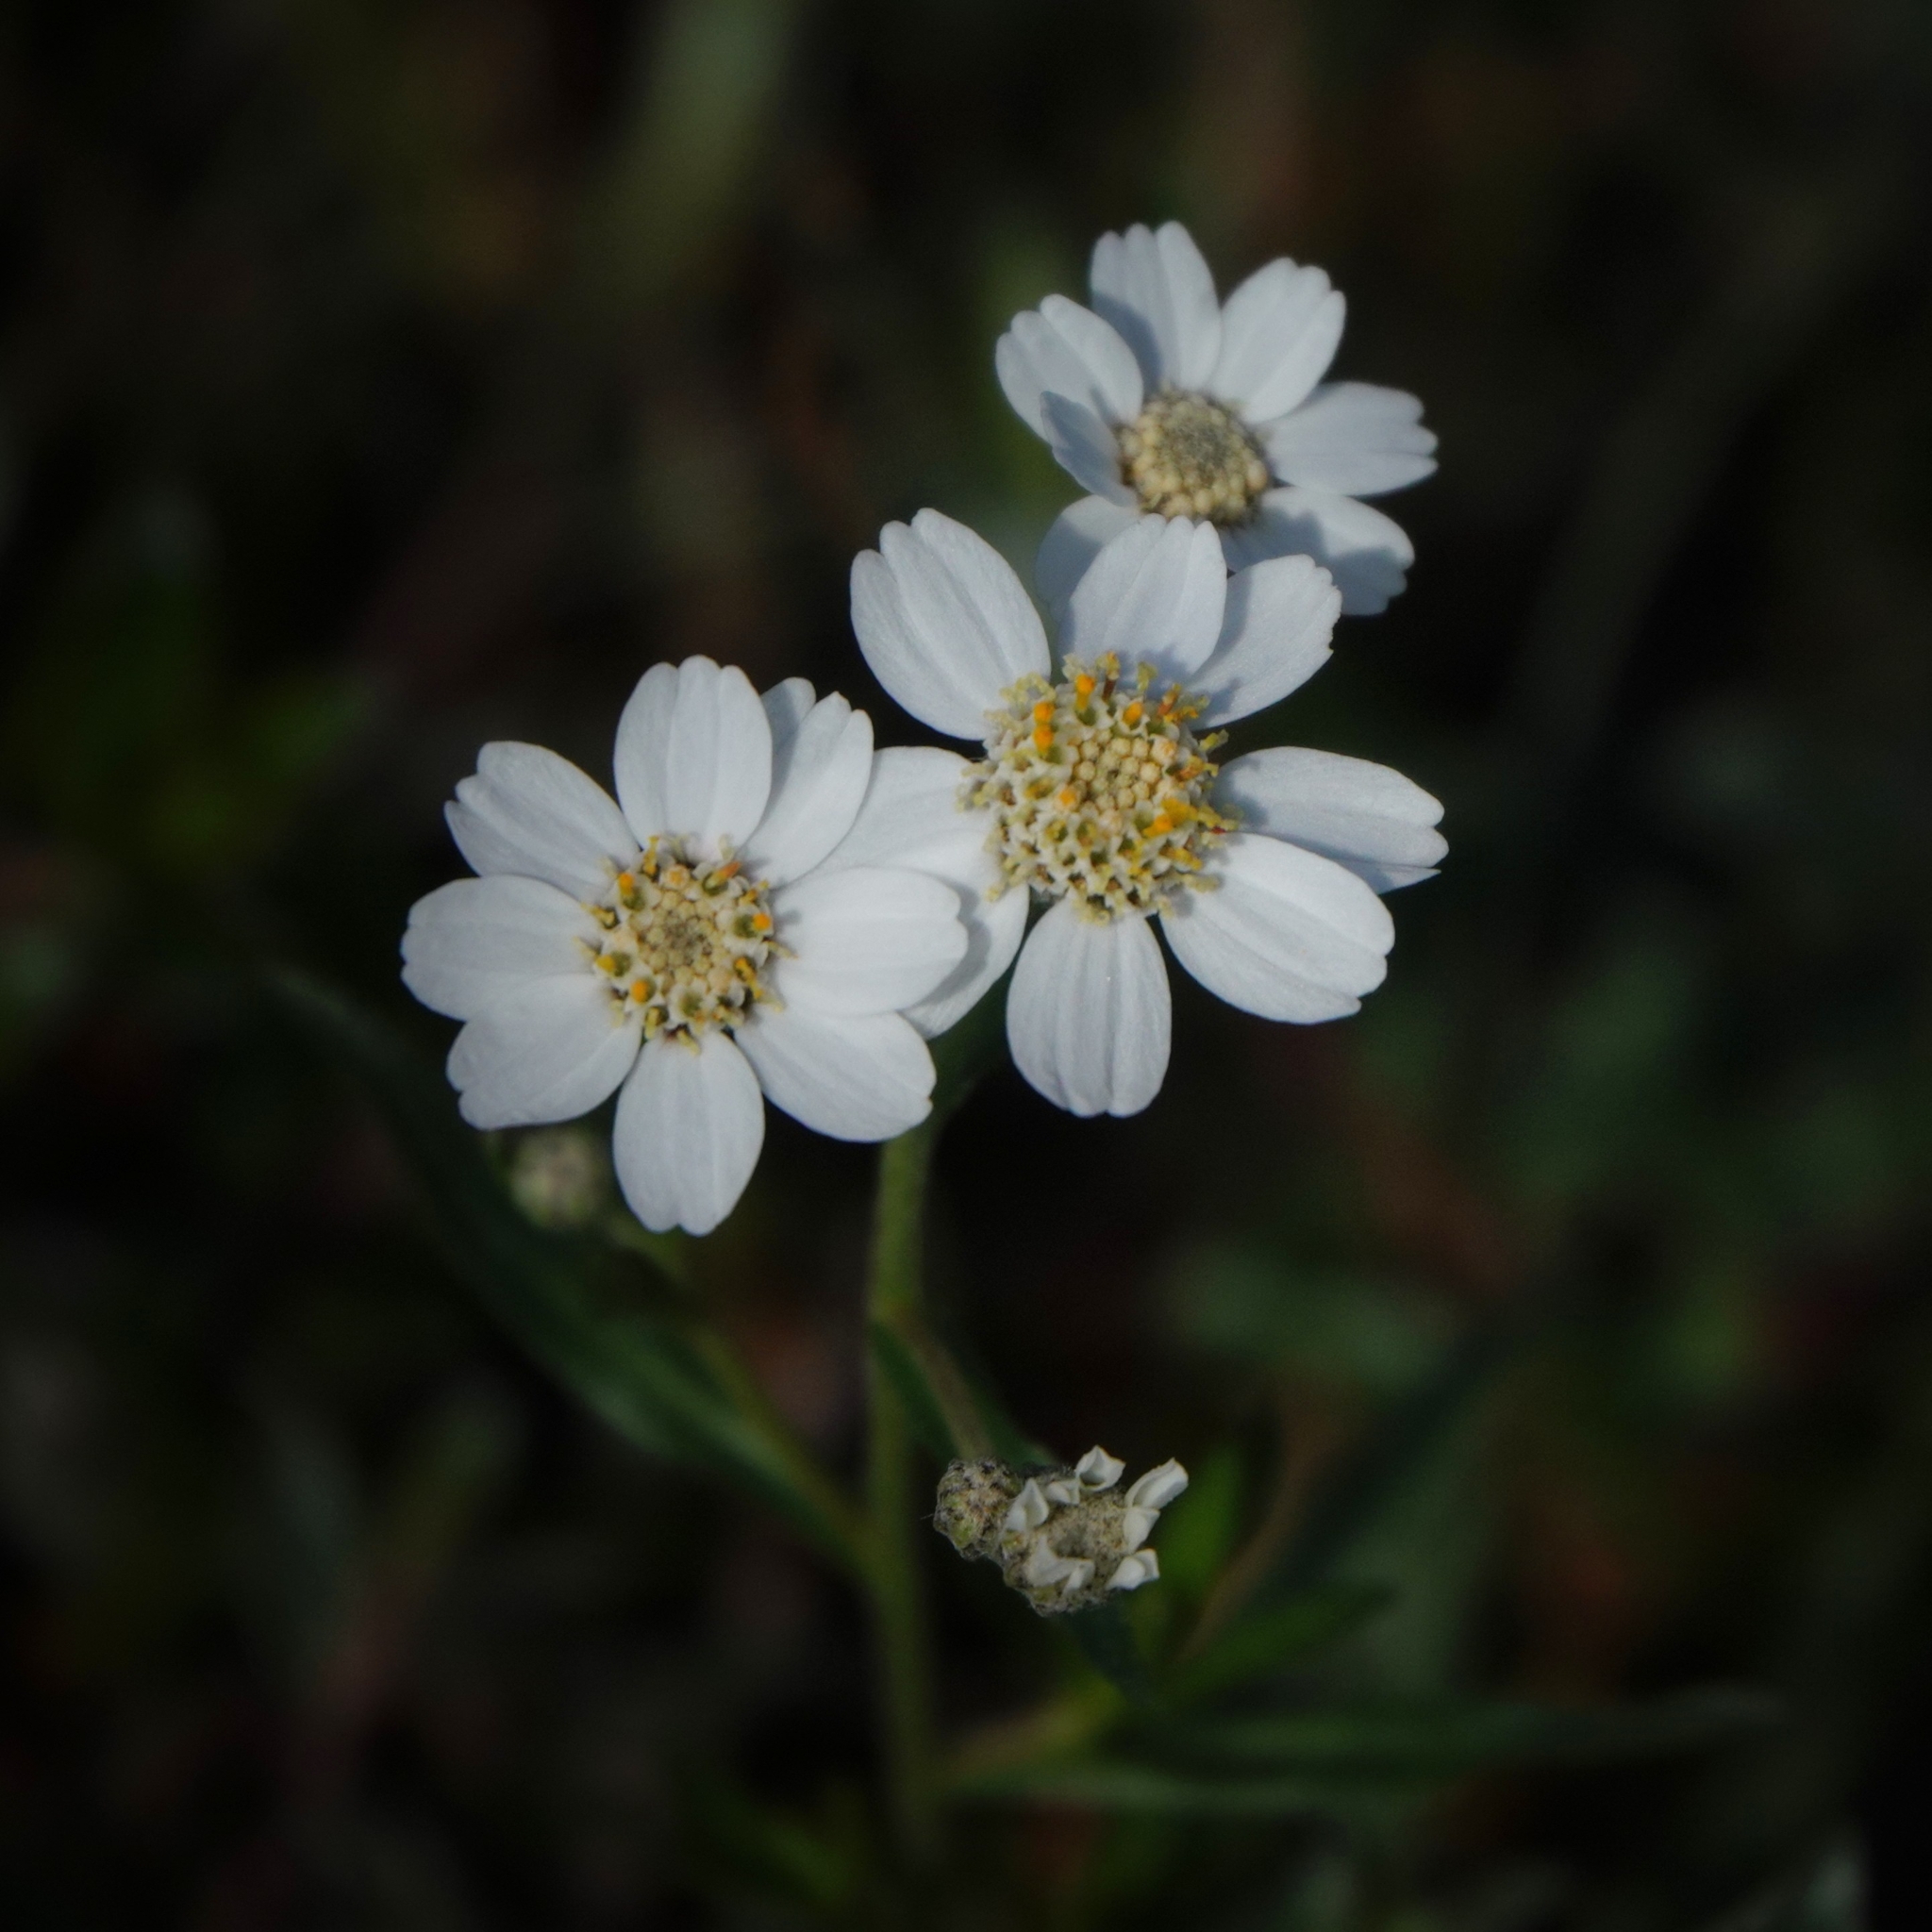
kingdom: Plantae
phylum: Tracheophyta
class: Magnoliopsida
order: Asterales
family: Asteraceae
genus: Achillea
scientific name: Achillea ptarmica
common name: Sneezeweed
